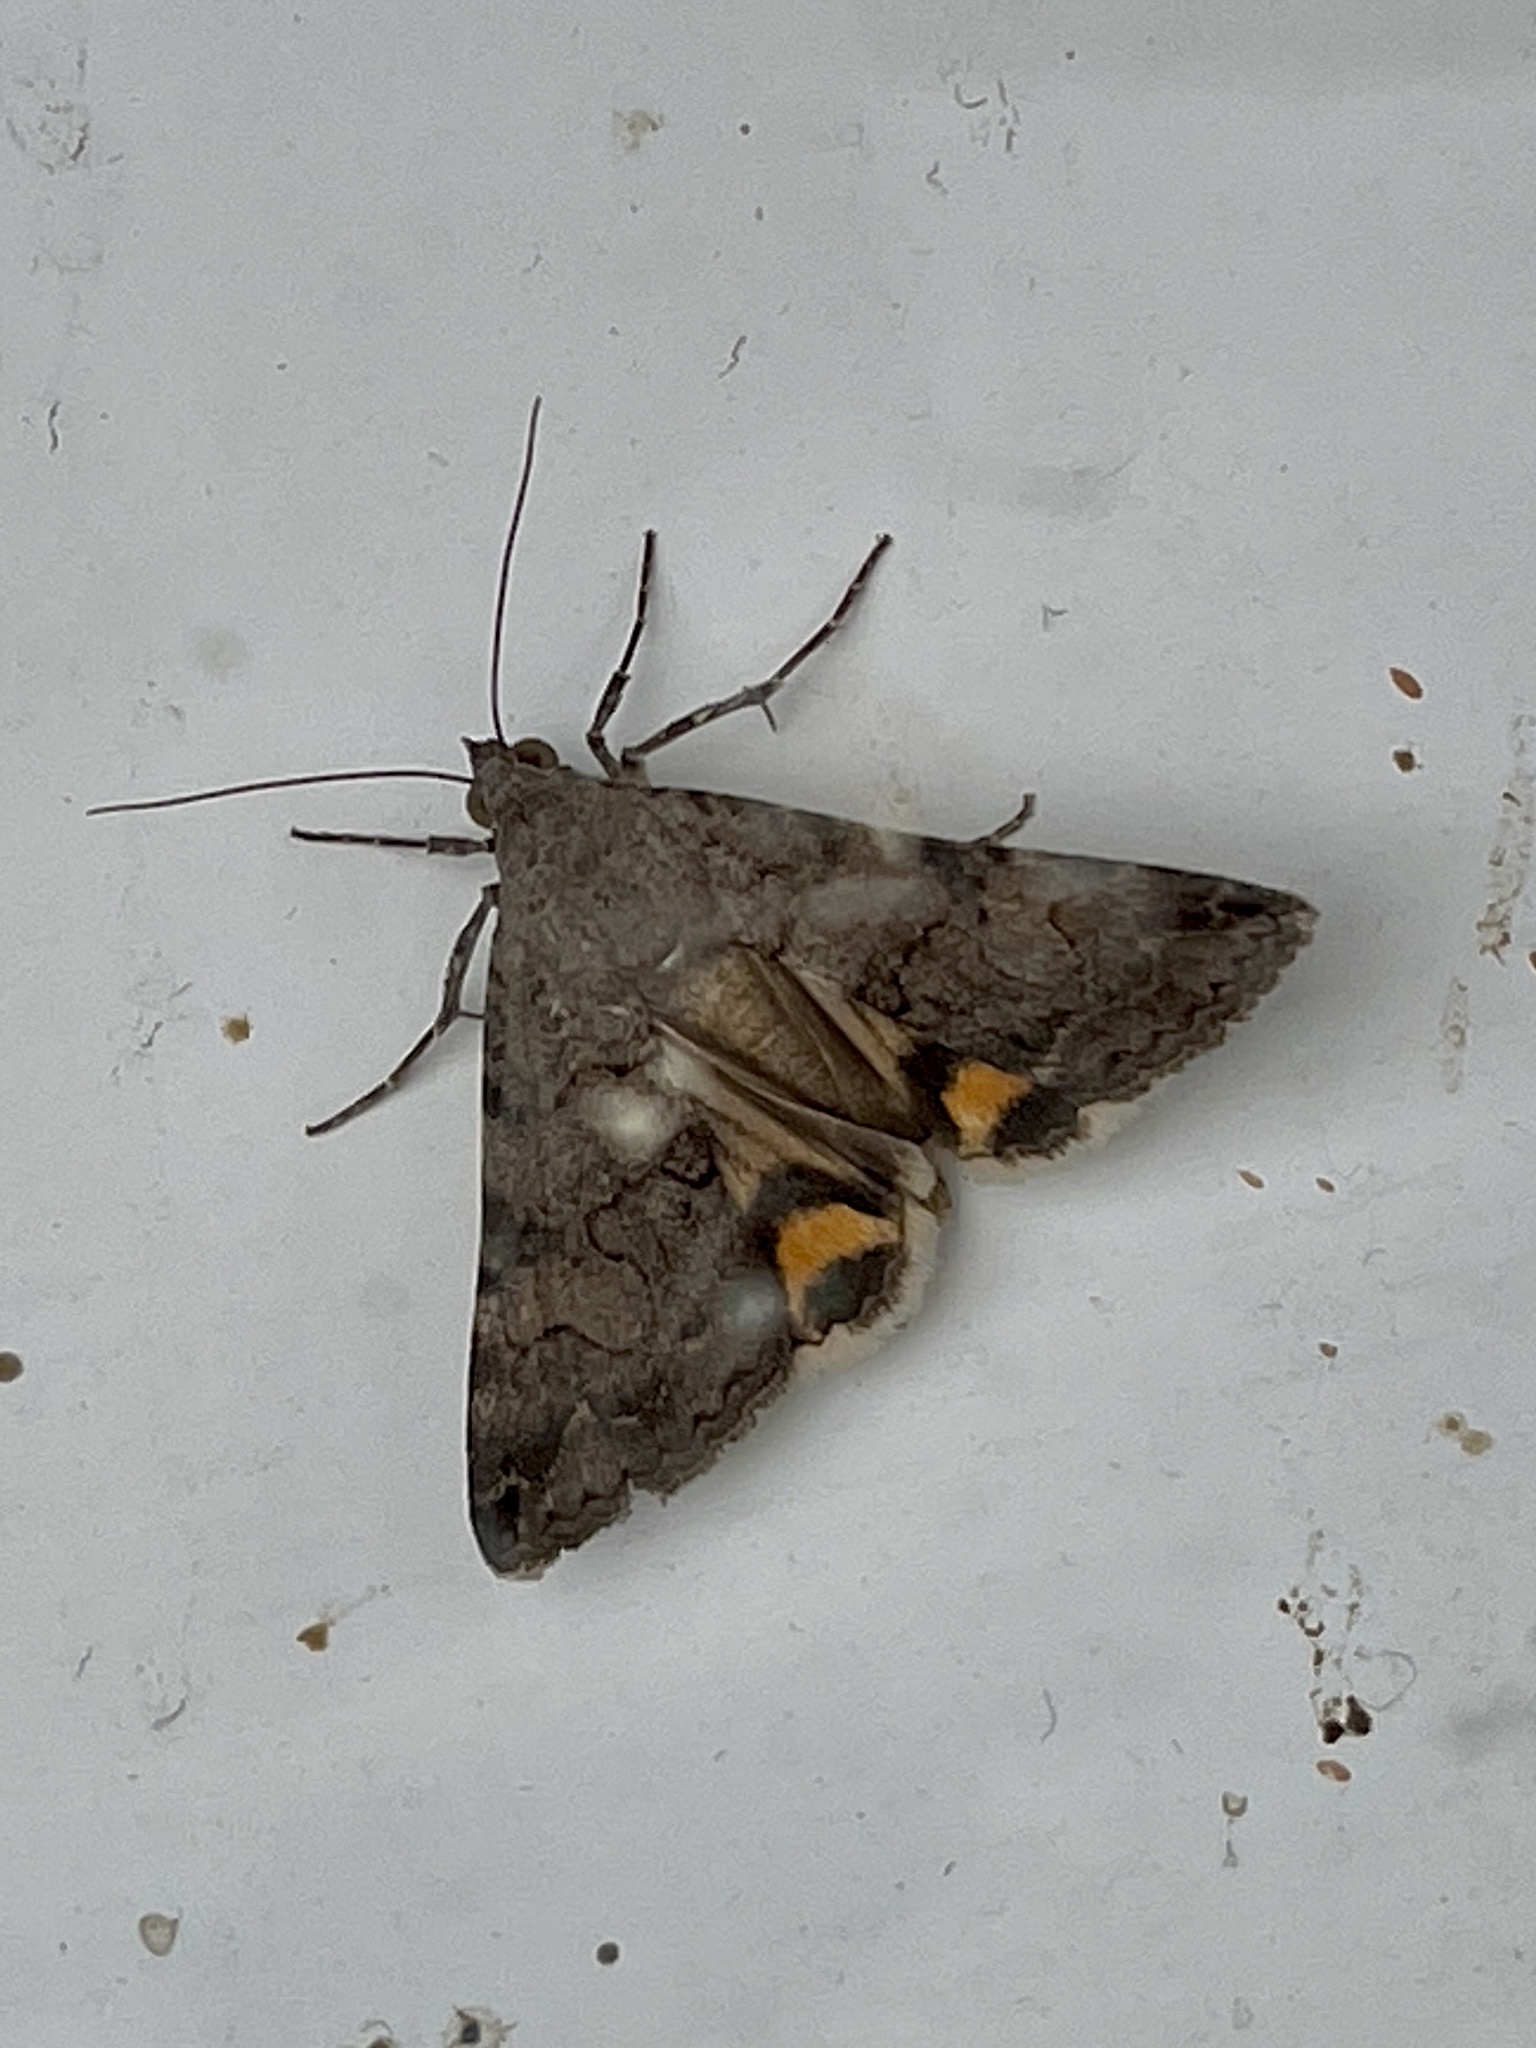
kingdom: Animalia
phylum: Arthropoda
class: Insecta
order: Lepidoptera
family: Erebidae
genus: Bulia
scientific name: Bulia deducta
